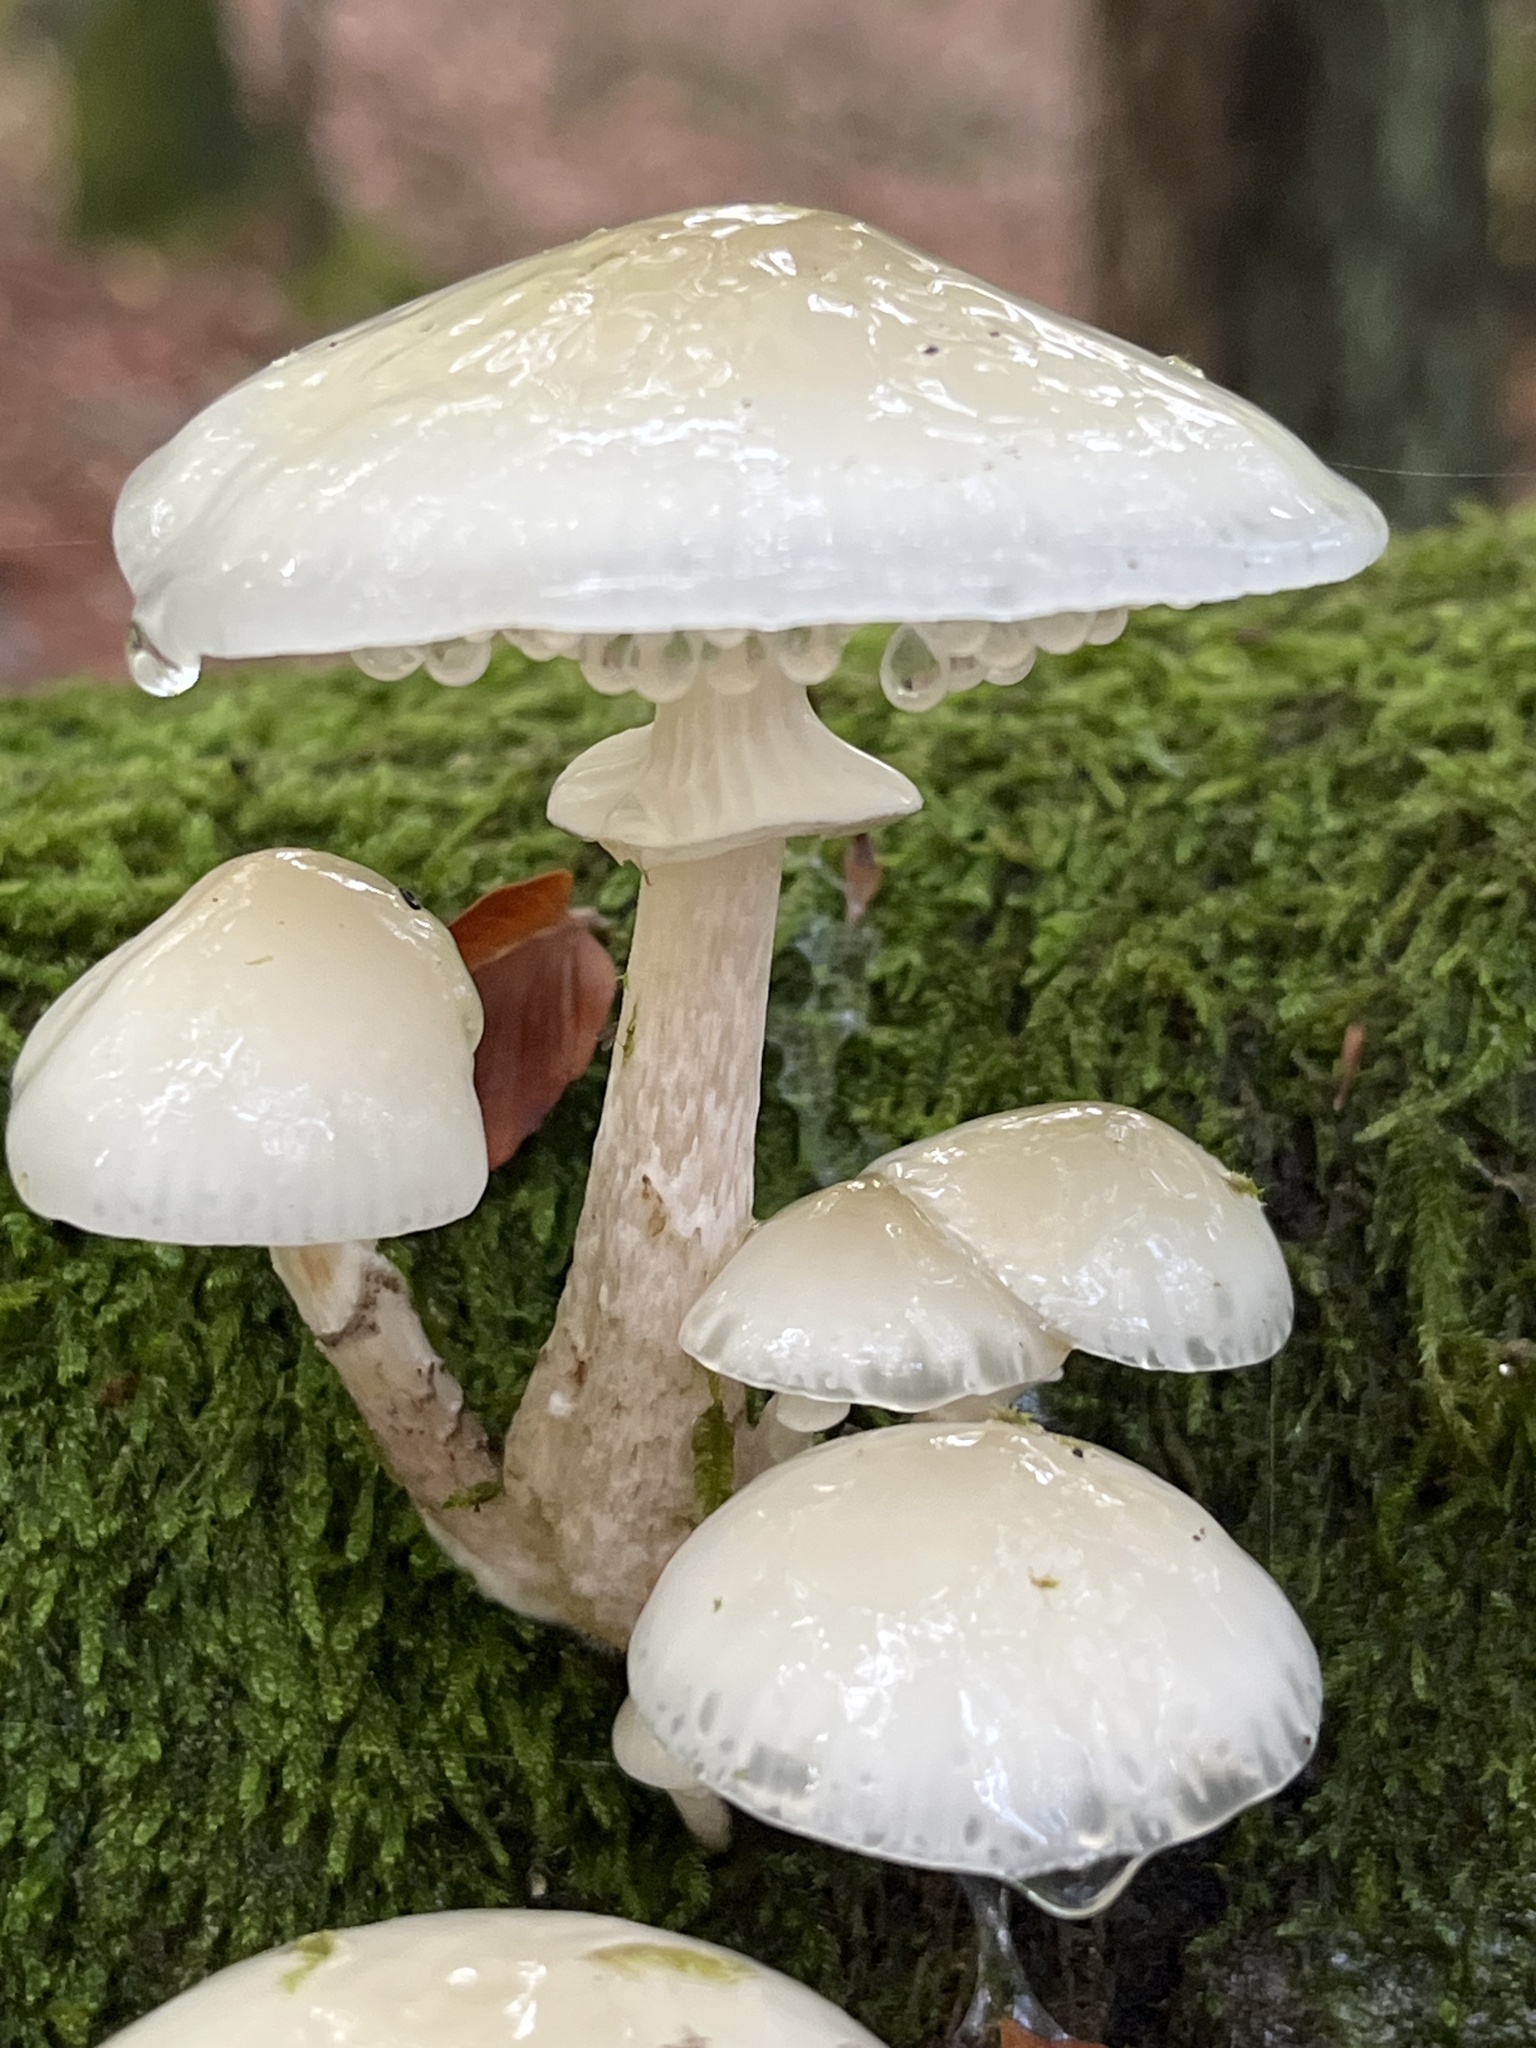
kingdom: Fungi
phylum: Basidiomycota
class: Agaricomycetes
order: Agaricales
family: Physalacriaceae
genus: Mucidula
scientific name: Mucidula mucida
